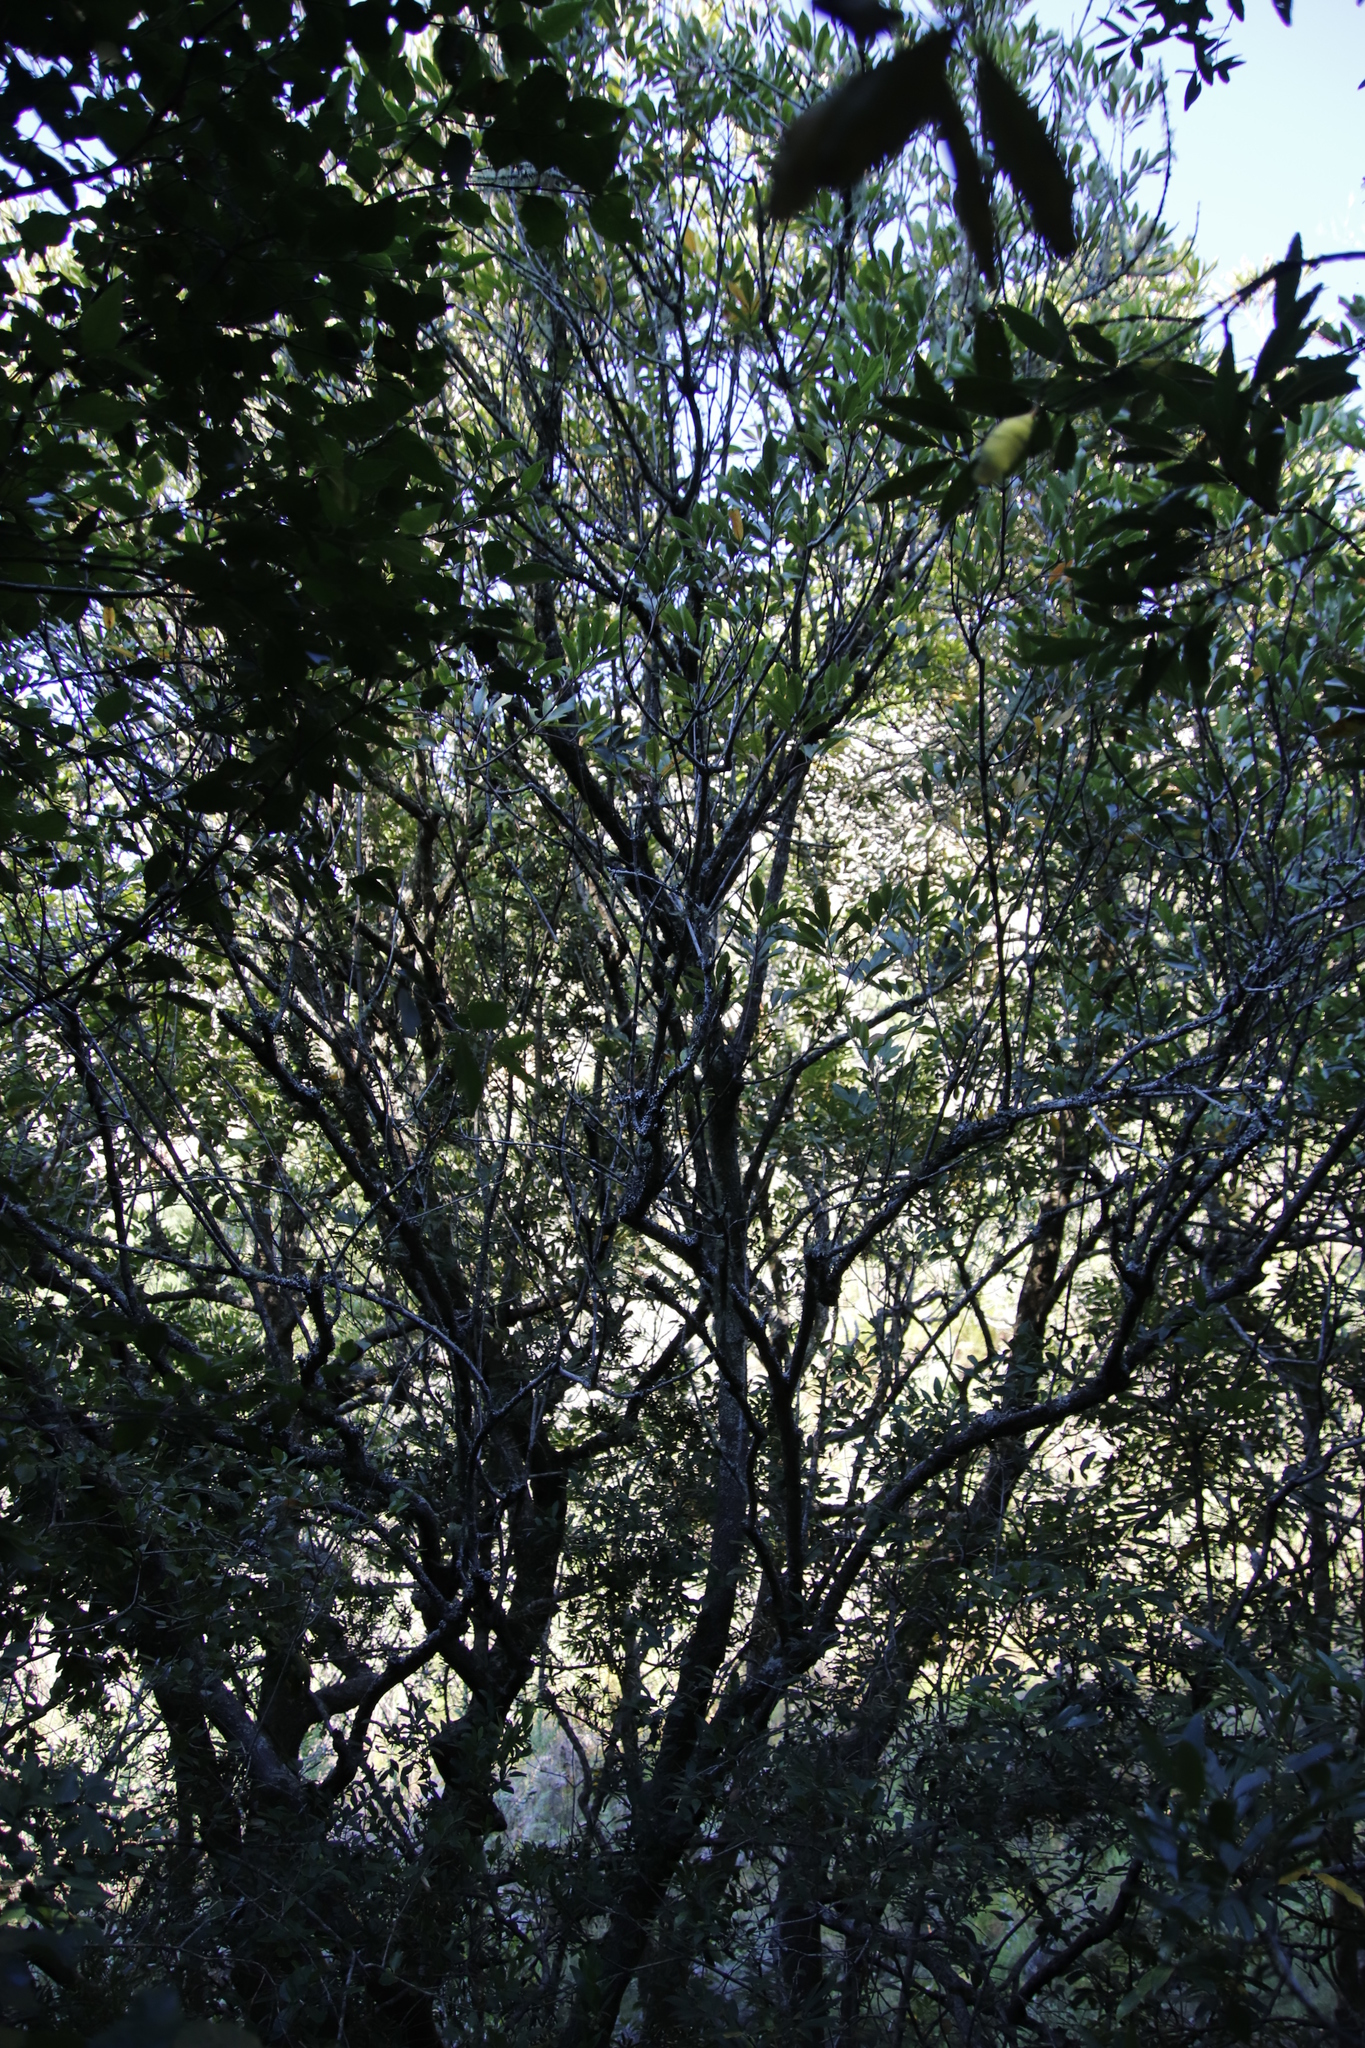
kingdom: Plantae
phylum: Tracheophyta
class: Magnoliopsida
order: Oxalidales
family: Cunoniaceae
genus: Cunonia
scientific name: Cunonia capensis
